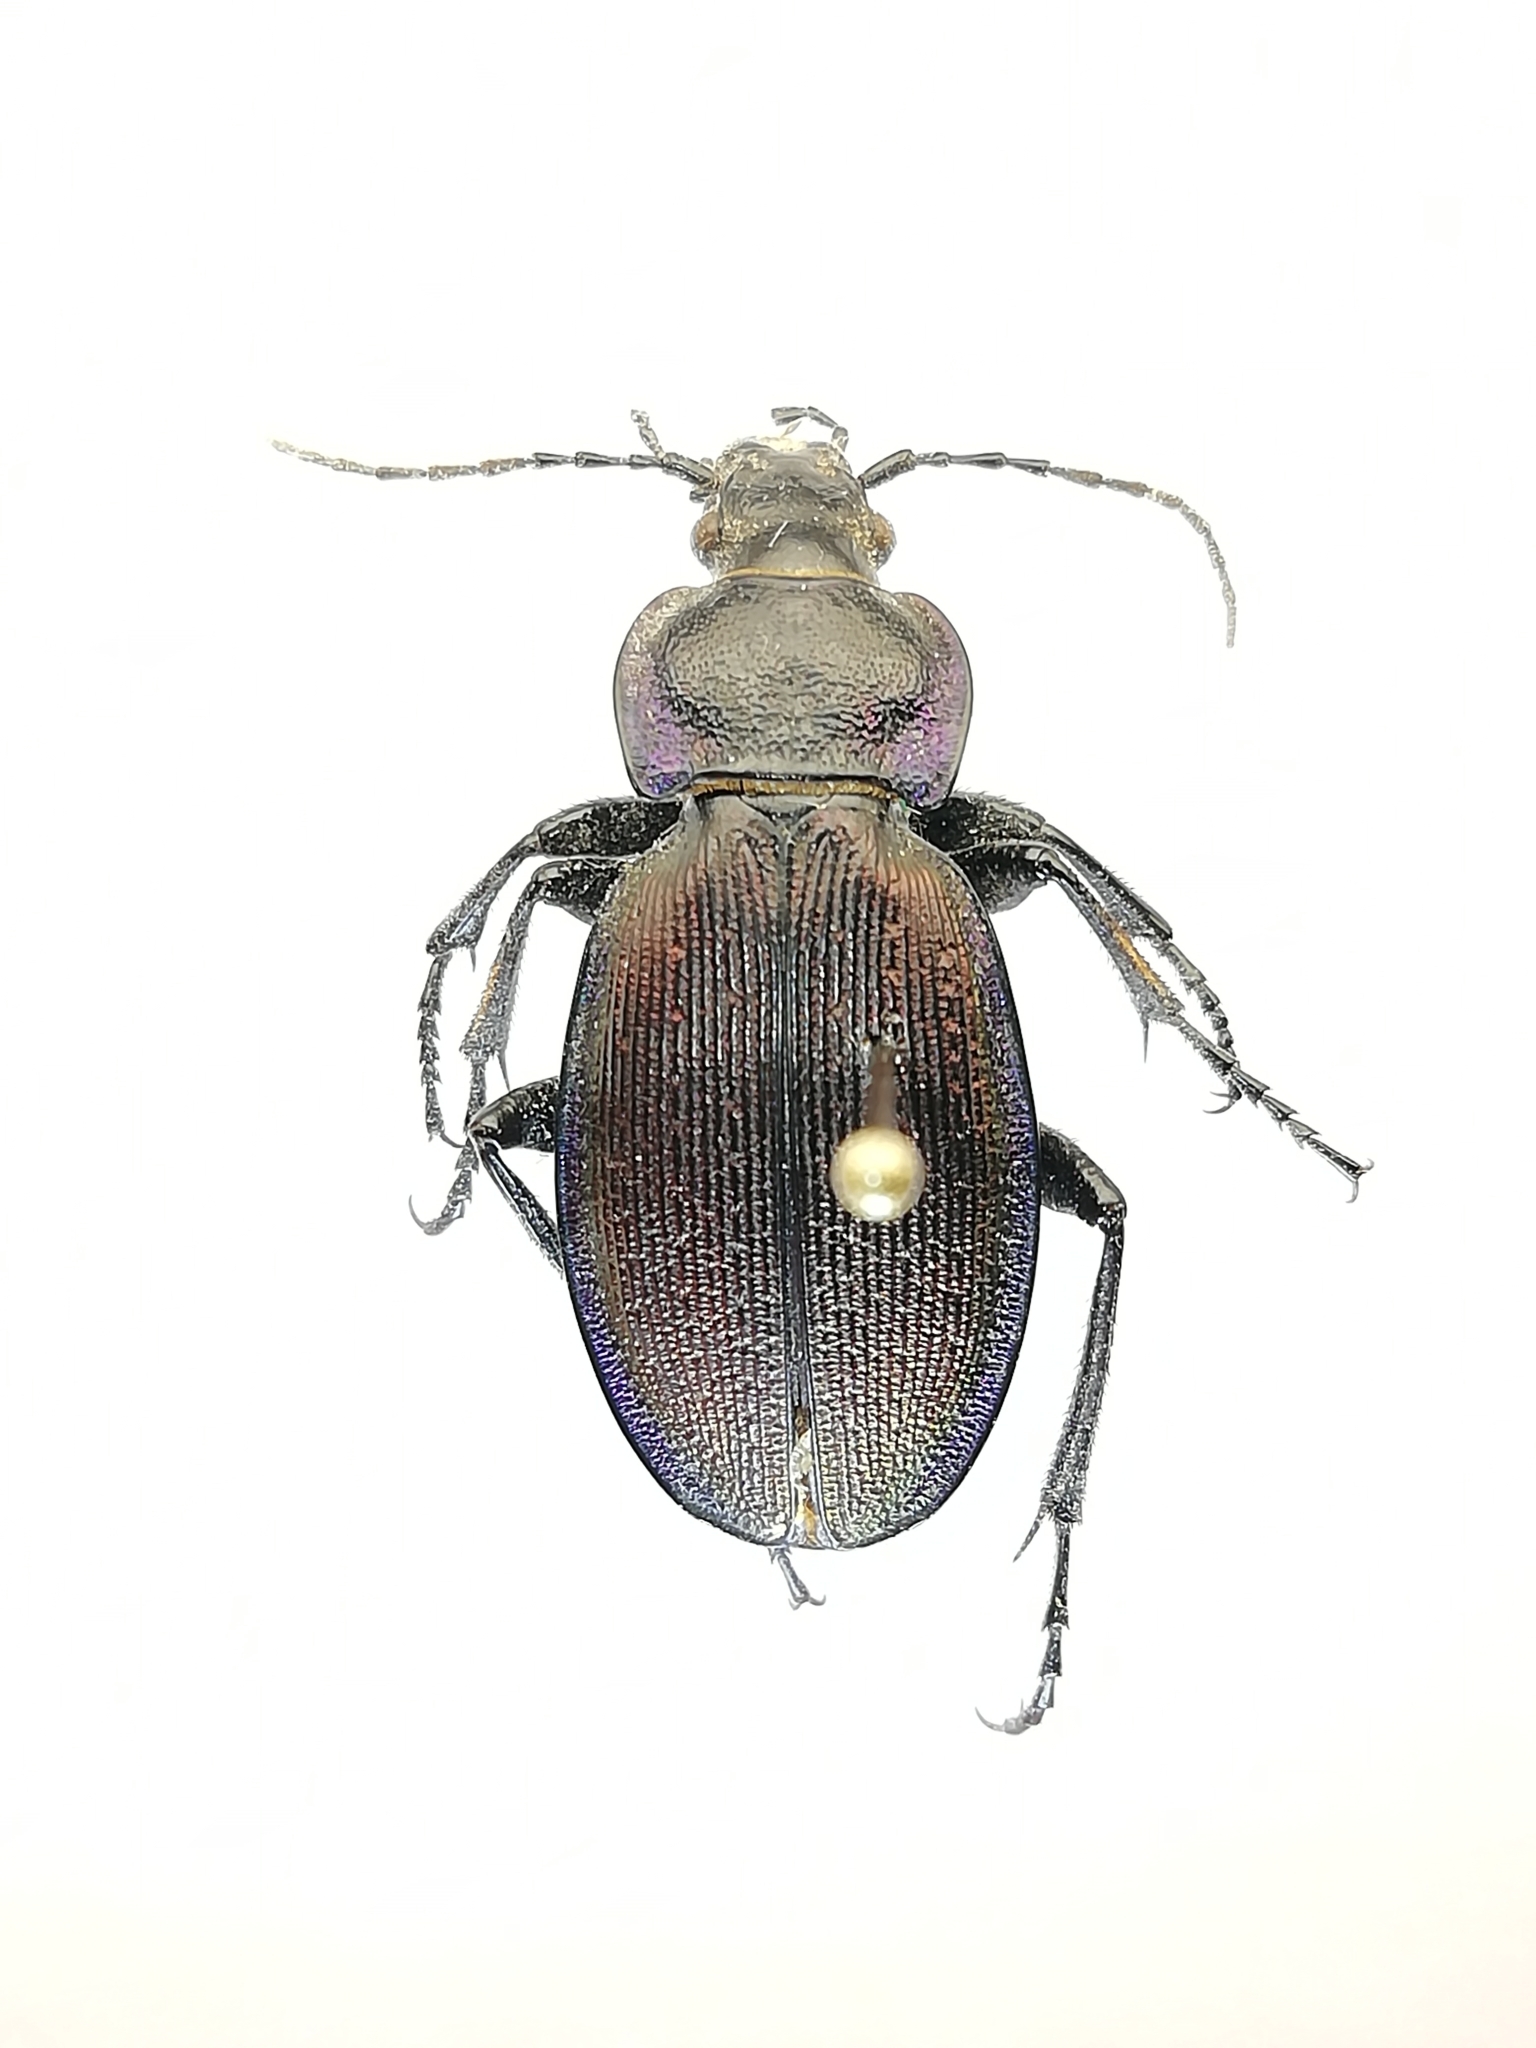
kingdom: Animalia
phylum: Arthropoda
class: Insecta
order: Coleoptera
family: Carabidae
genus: Carabus
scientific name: Carabus regalis
